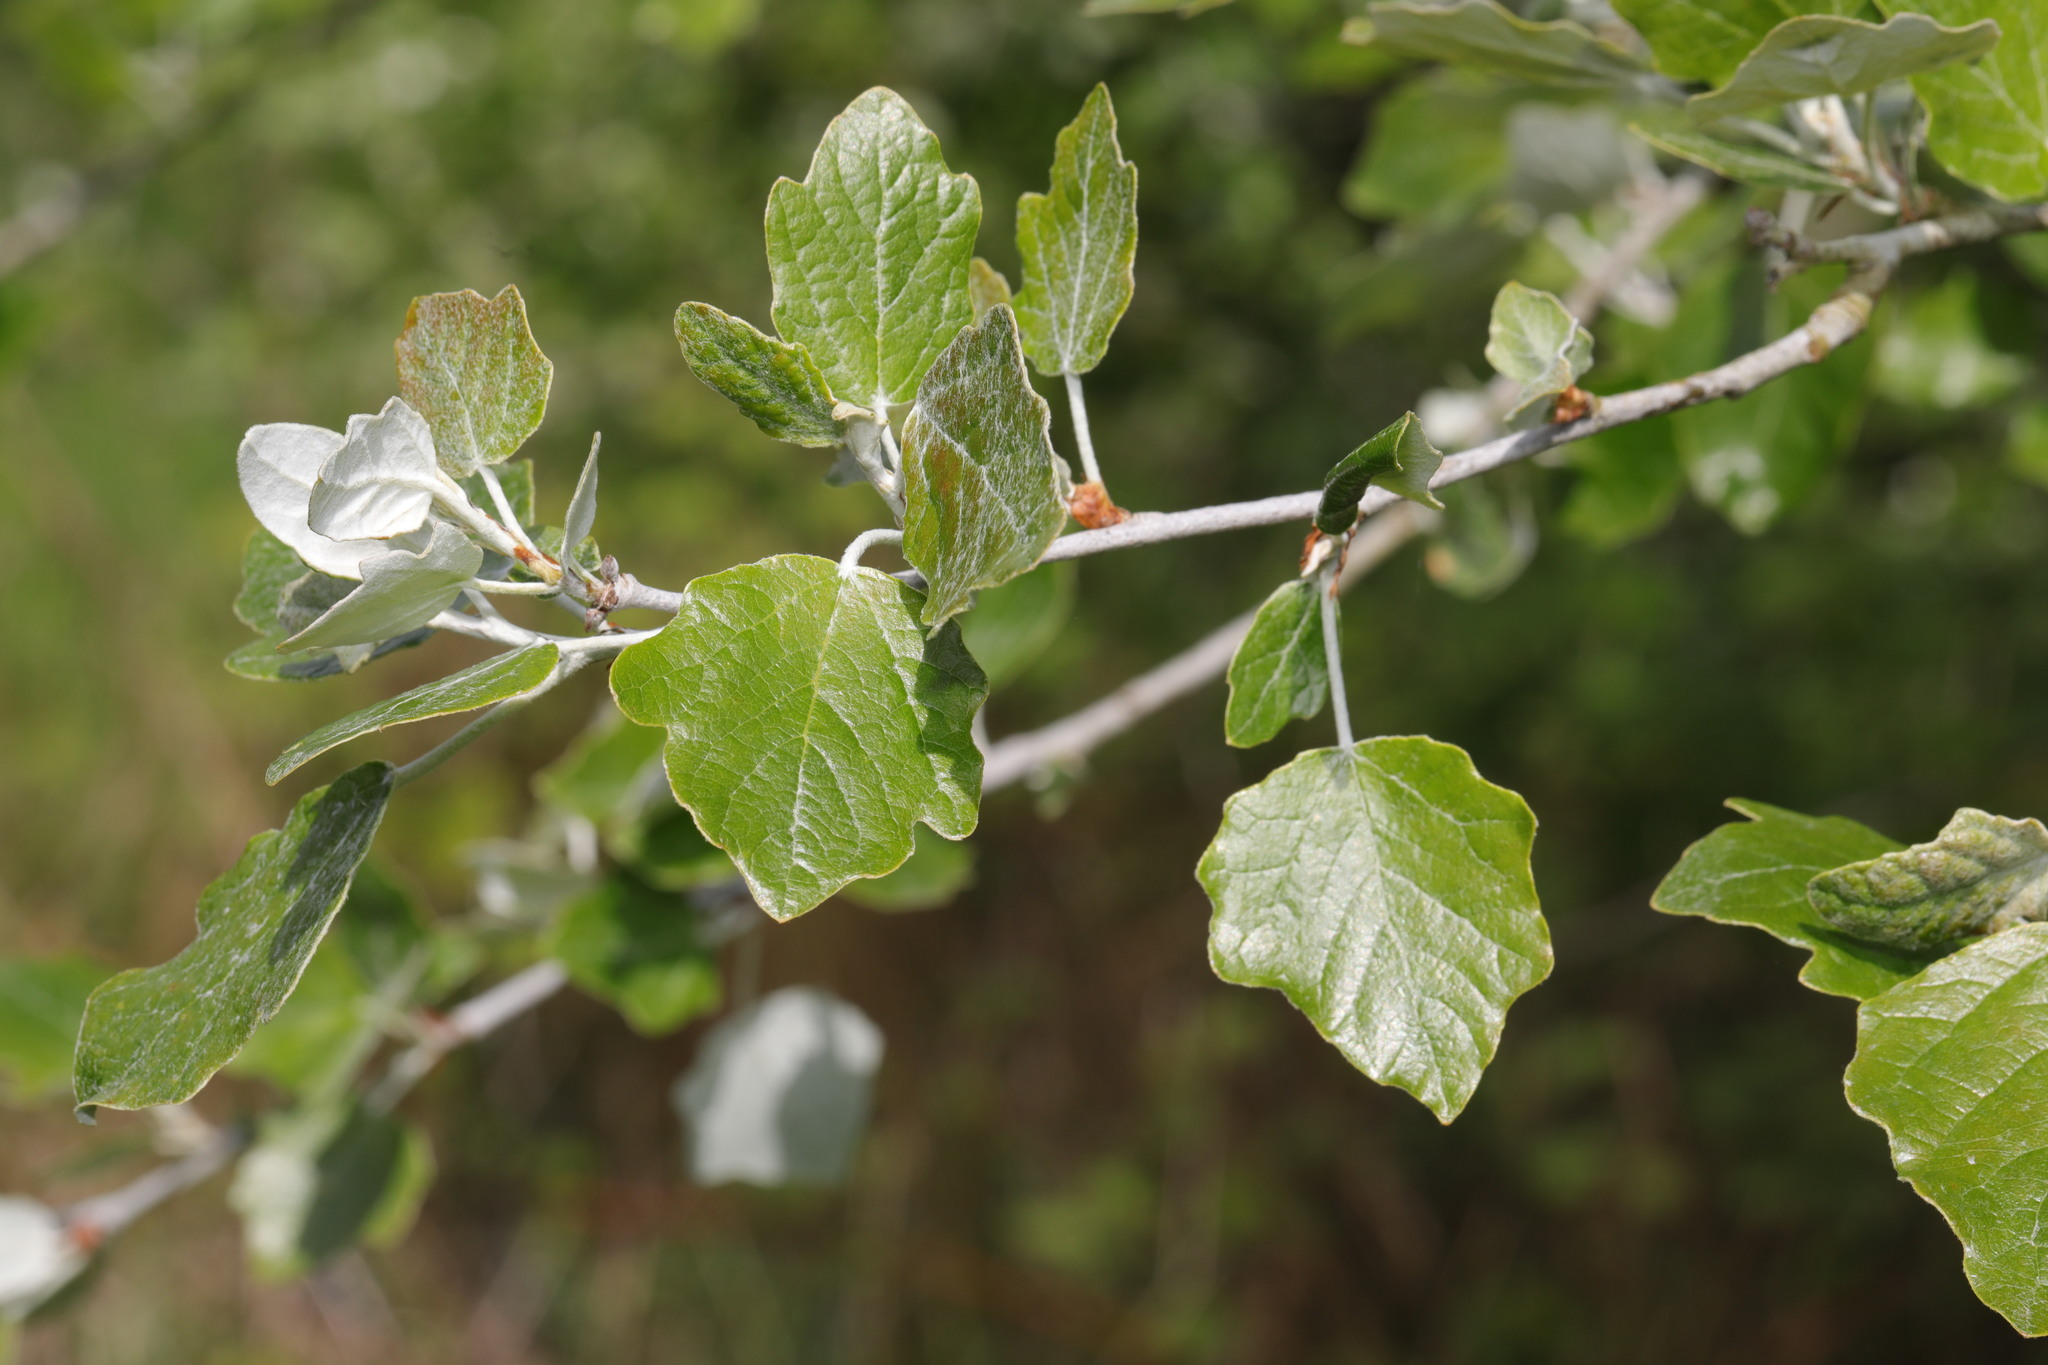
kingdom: Plantae
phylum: Tracheophyta
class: Magnoliopsida
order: Malpighiales
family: Salicaceae
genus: Populus
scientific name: Populus alba
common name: White poplar
